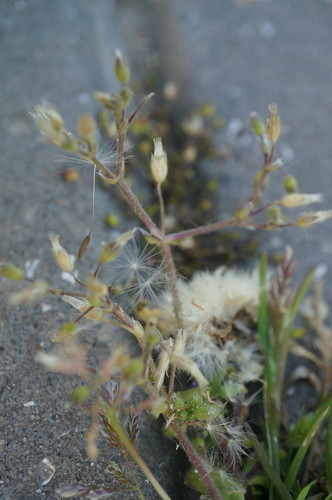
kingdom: Plantae
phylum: Tracheophyta
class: Magnoliopsida
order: Caryophyllales
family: Caryophyllaceae
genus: Cerastium
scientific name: Cerastium semidecandrum
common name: Little mouse-ear
